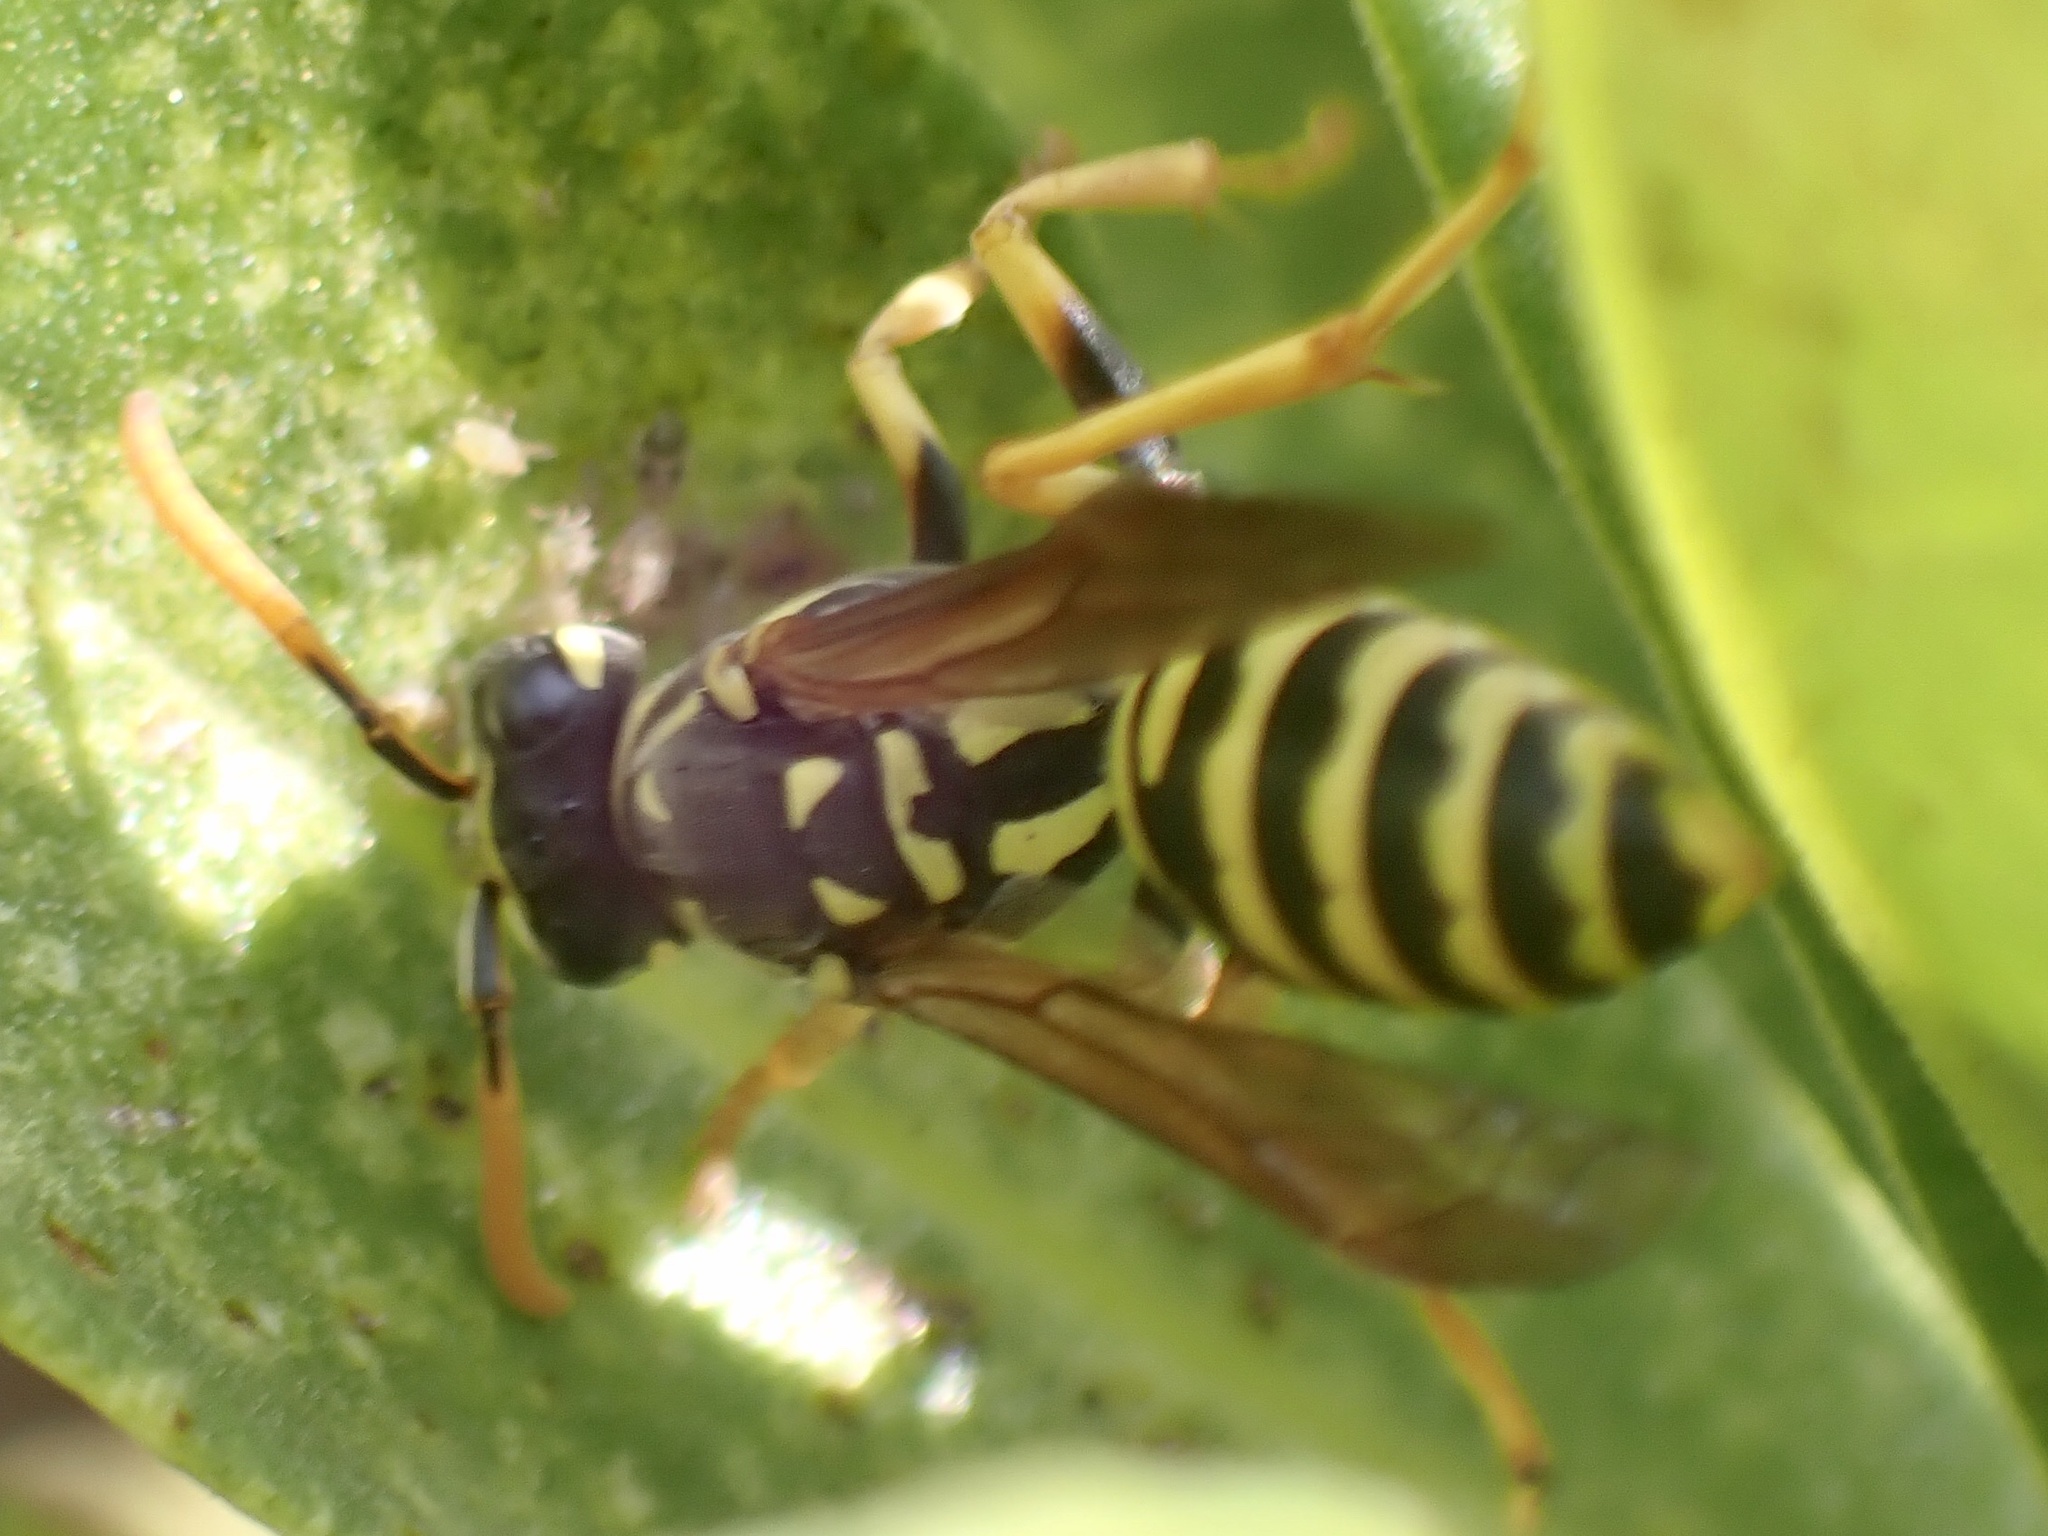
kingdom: Animalia
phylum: Arthropoda
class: Insecta
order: Hymenoptera
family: Eumenidae
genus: Polistes
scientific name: Polistes dominula
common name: Paper wasp
